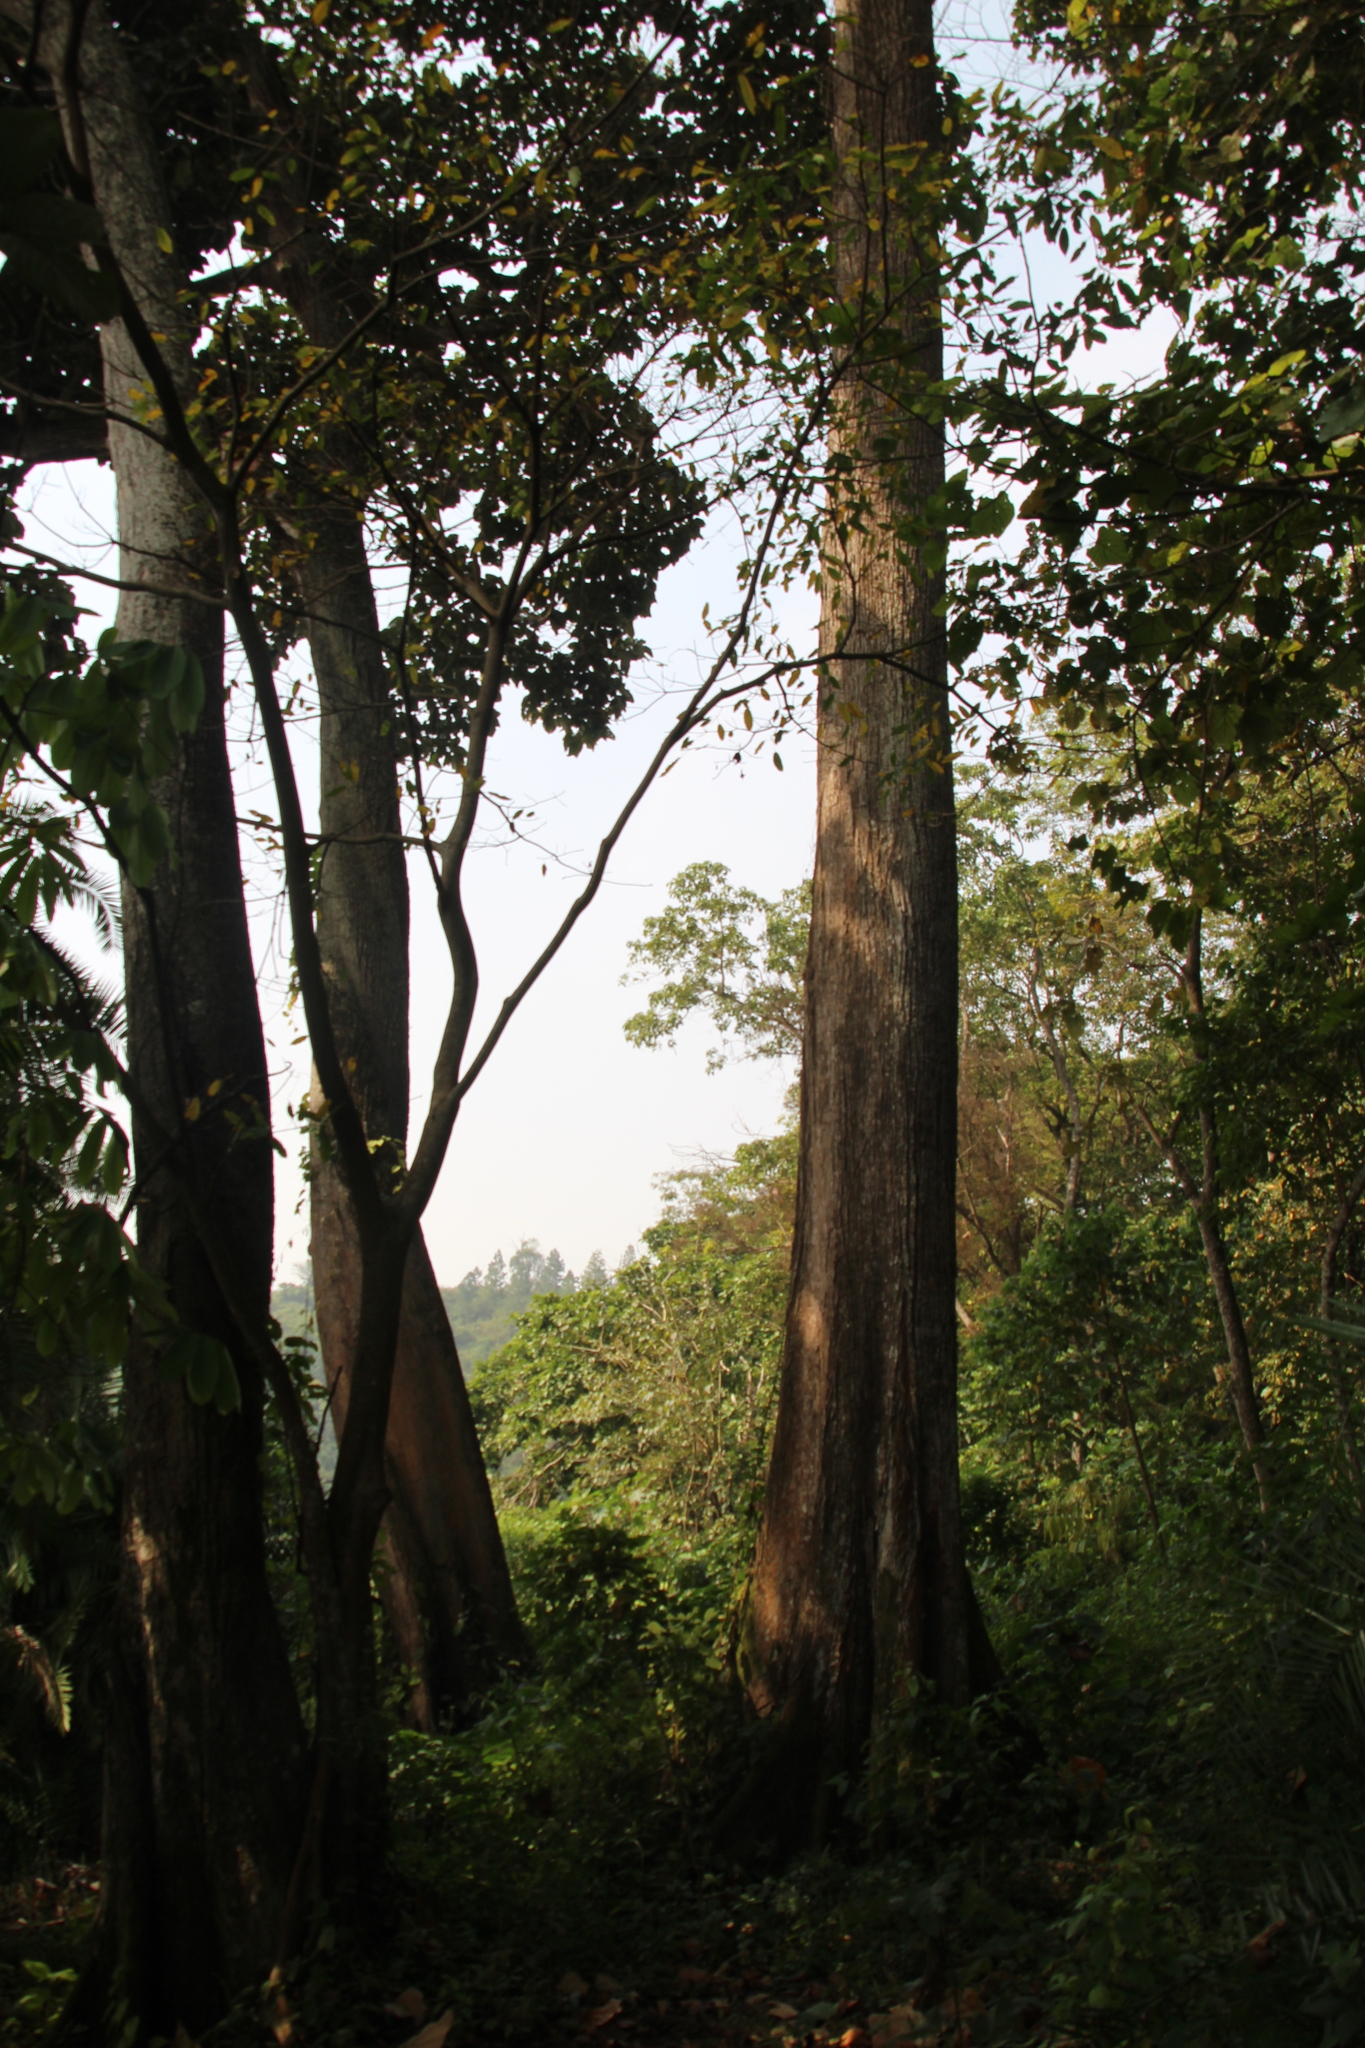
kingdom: Plantae
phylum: Tracheophyta
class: Magnoliopsida
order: Malvales
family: Malvaceae
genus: Pterygota
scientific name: Pterygota mildbraedii
